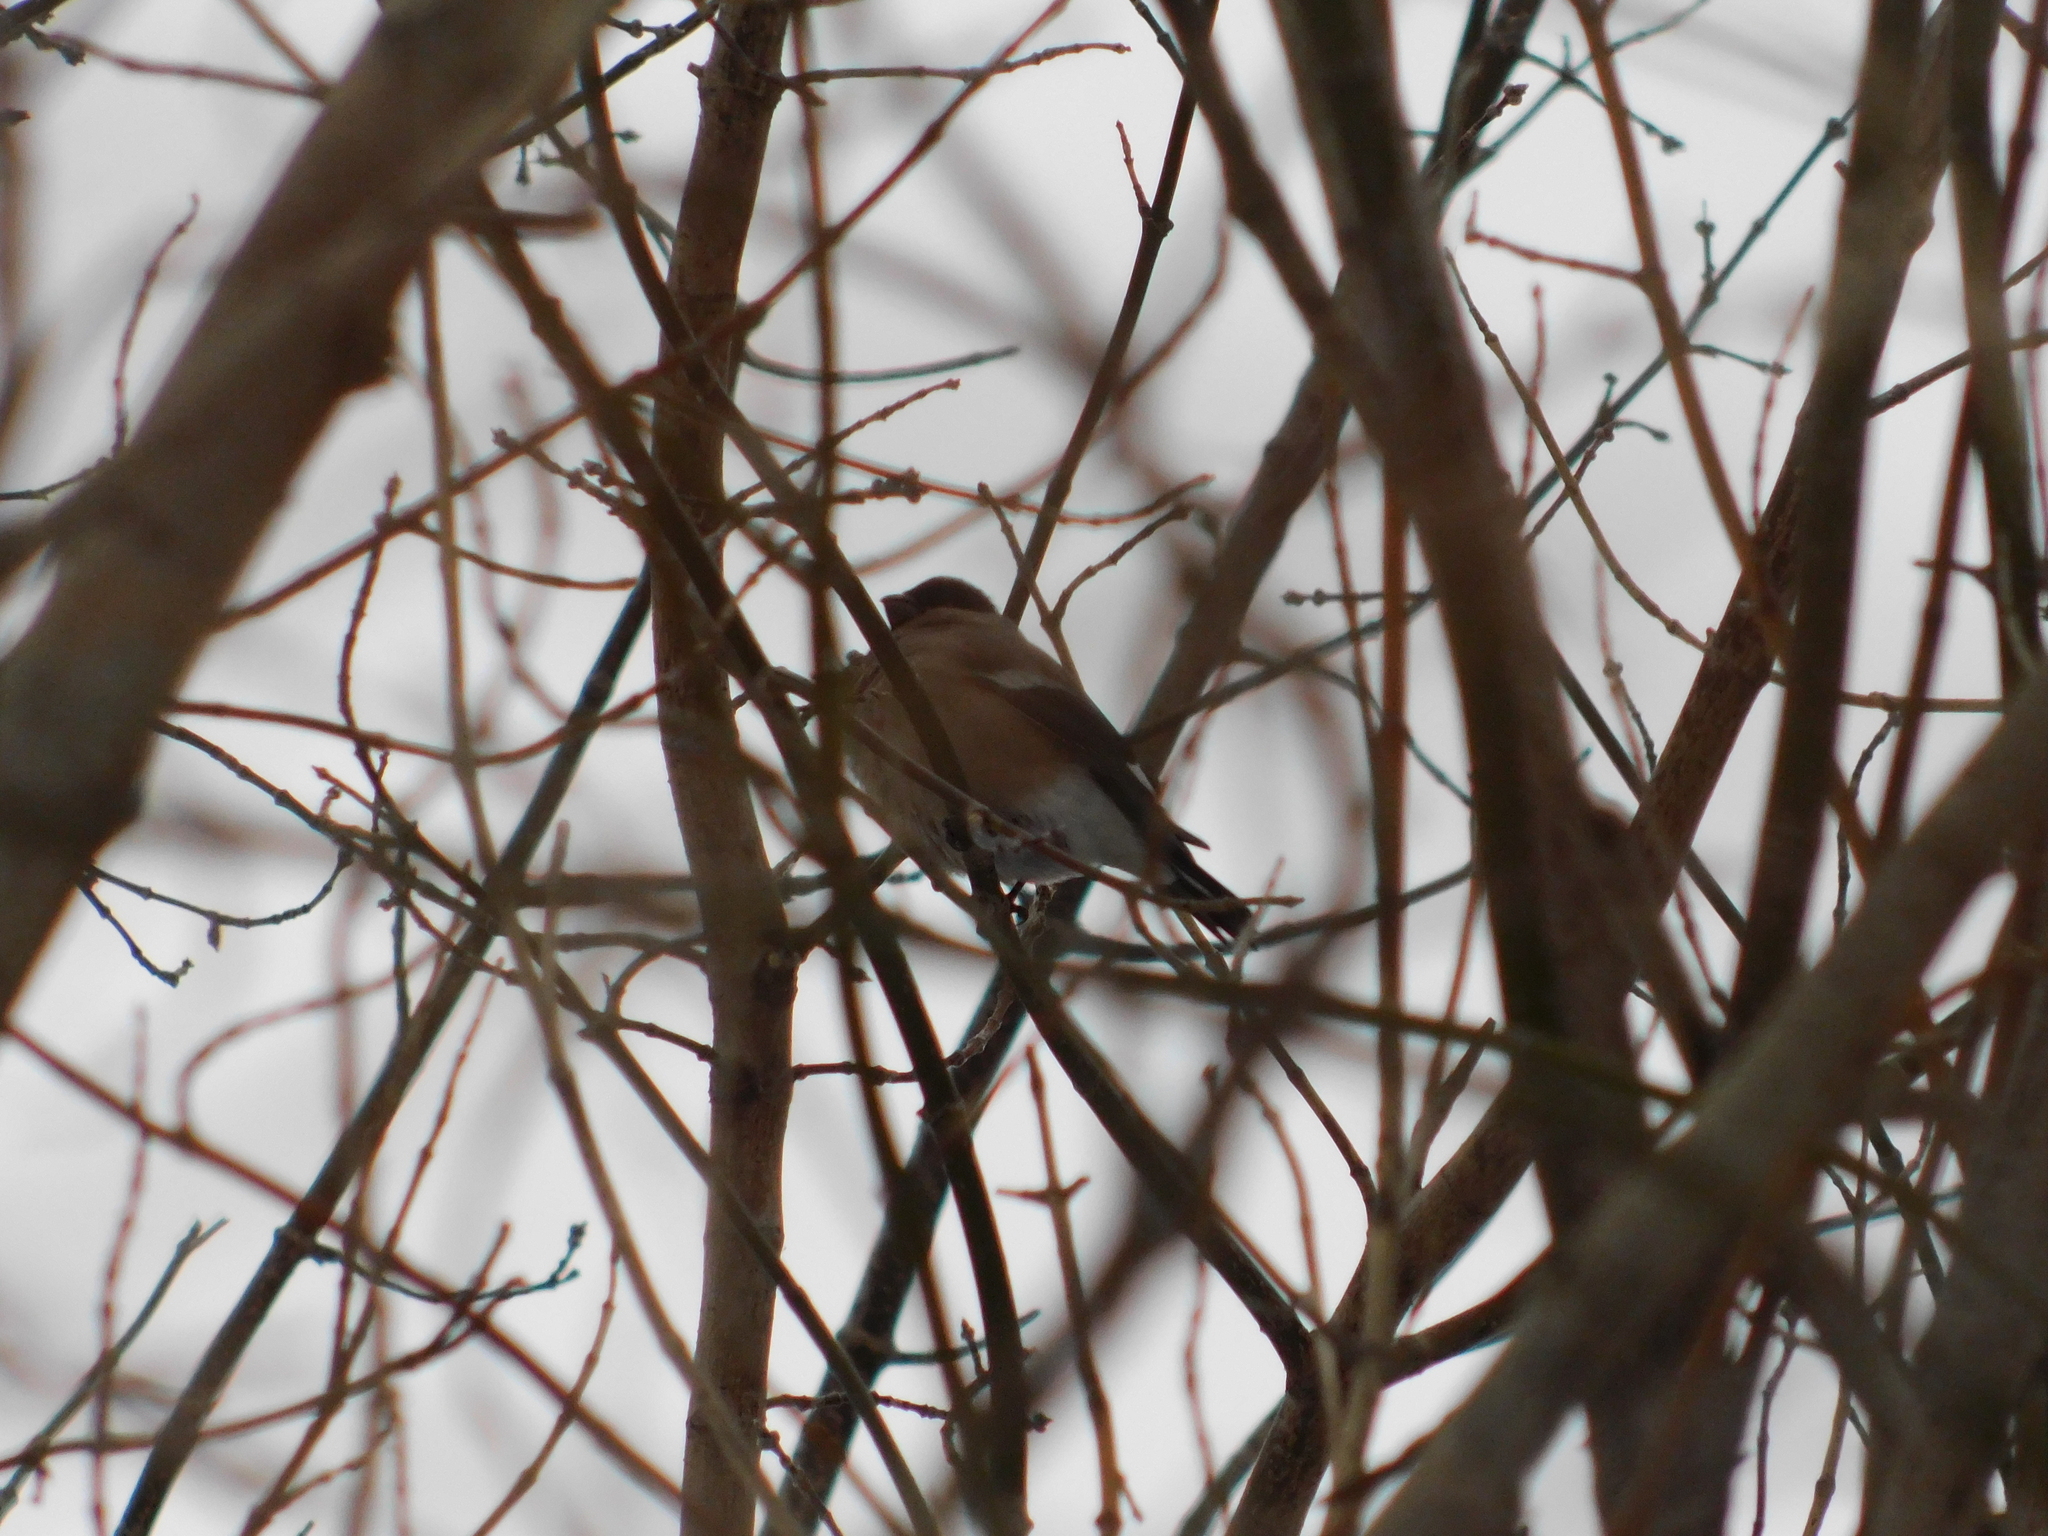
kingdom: Animalia
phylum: Chordata
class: Aves
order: Passeriformes
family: Fringillidae
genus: Pyrrhula
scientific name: Pyrrhula pyrrhula
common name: Eurasian bullfinch
